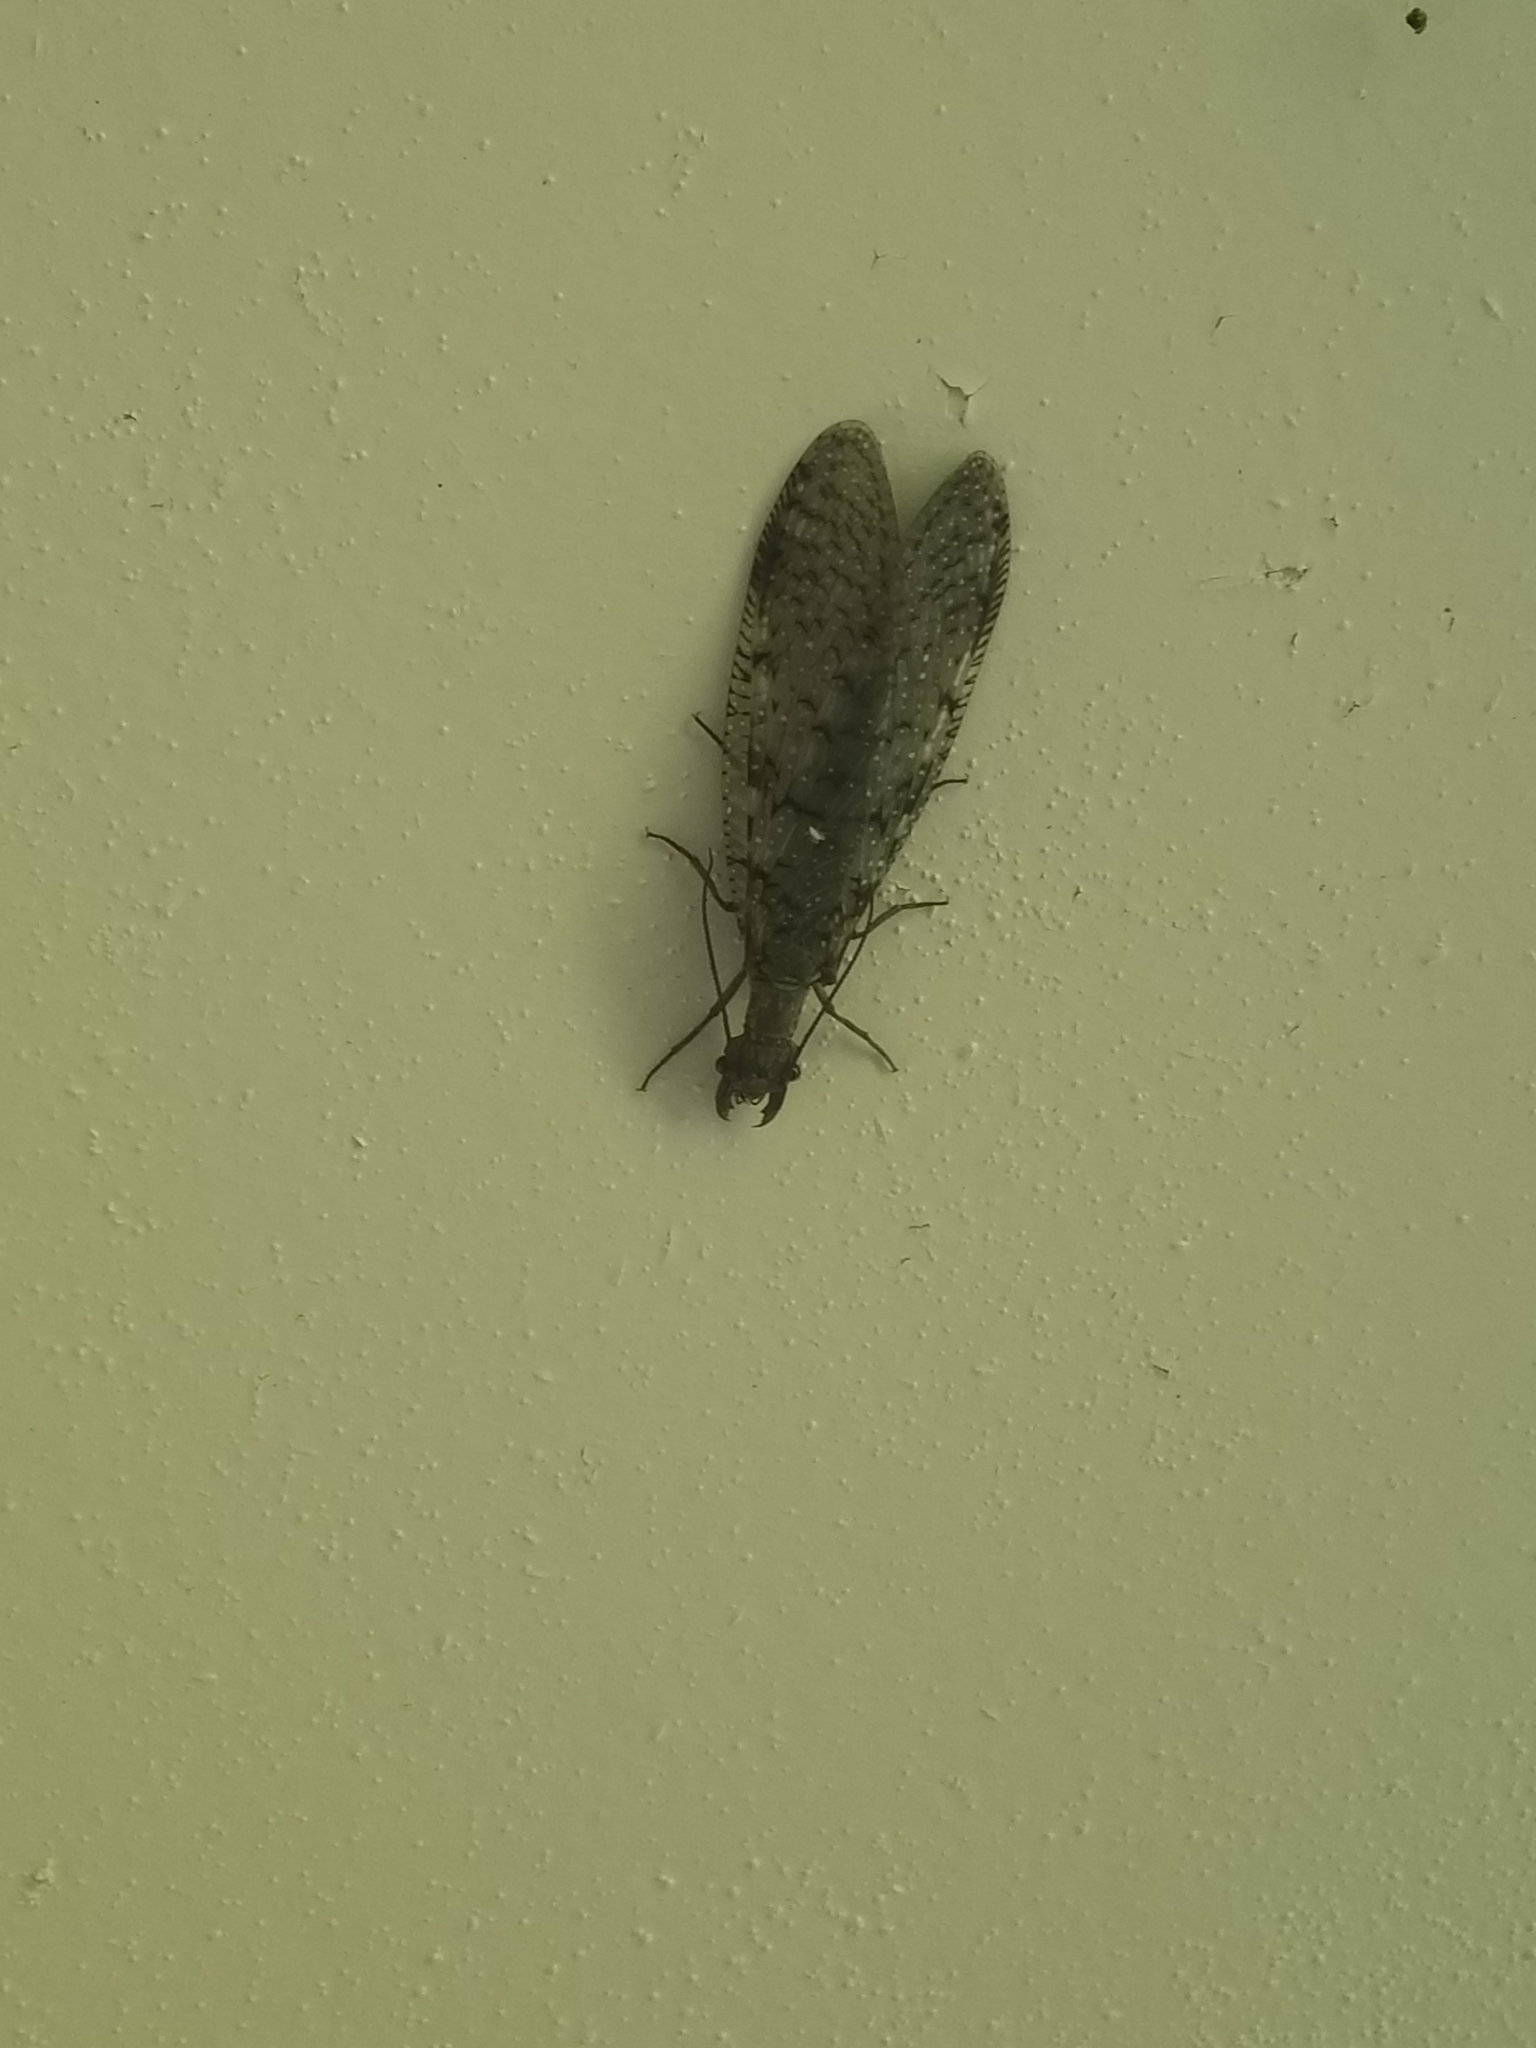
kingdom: Animalia
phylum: Arthropoda
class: Insecta
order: Megaloptera
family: Corydalidae
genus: Corydalus
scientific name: Corydalus cornutus
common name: Dobsonfly
